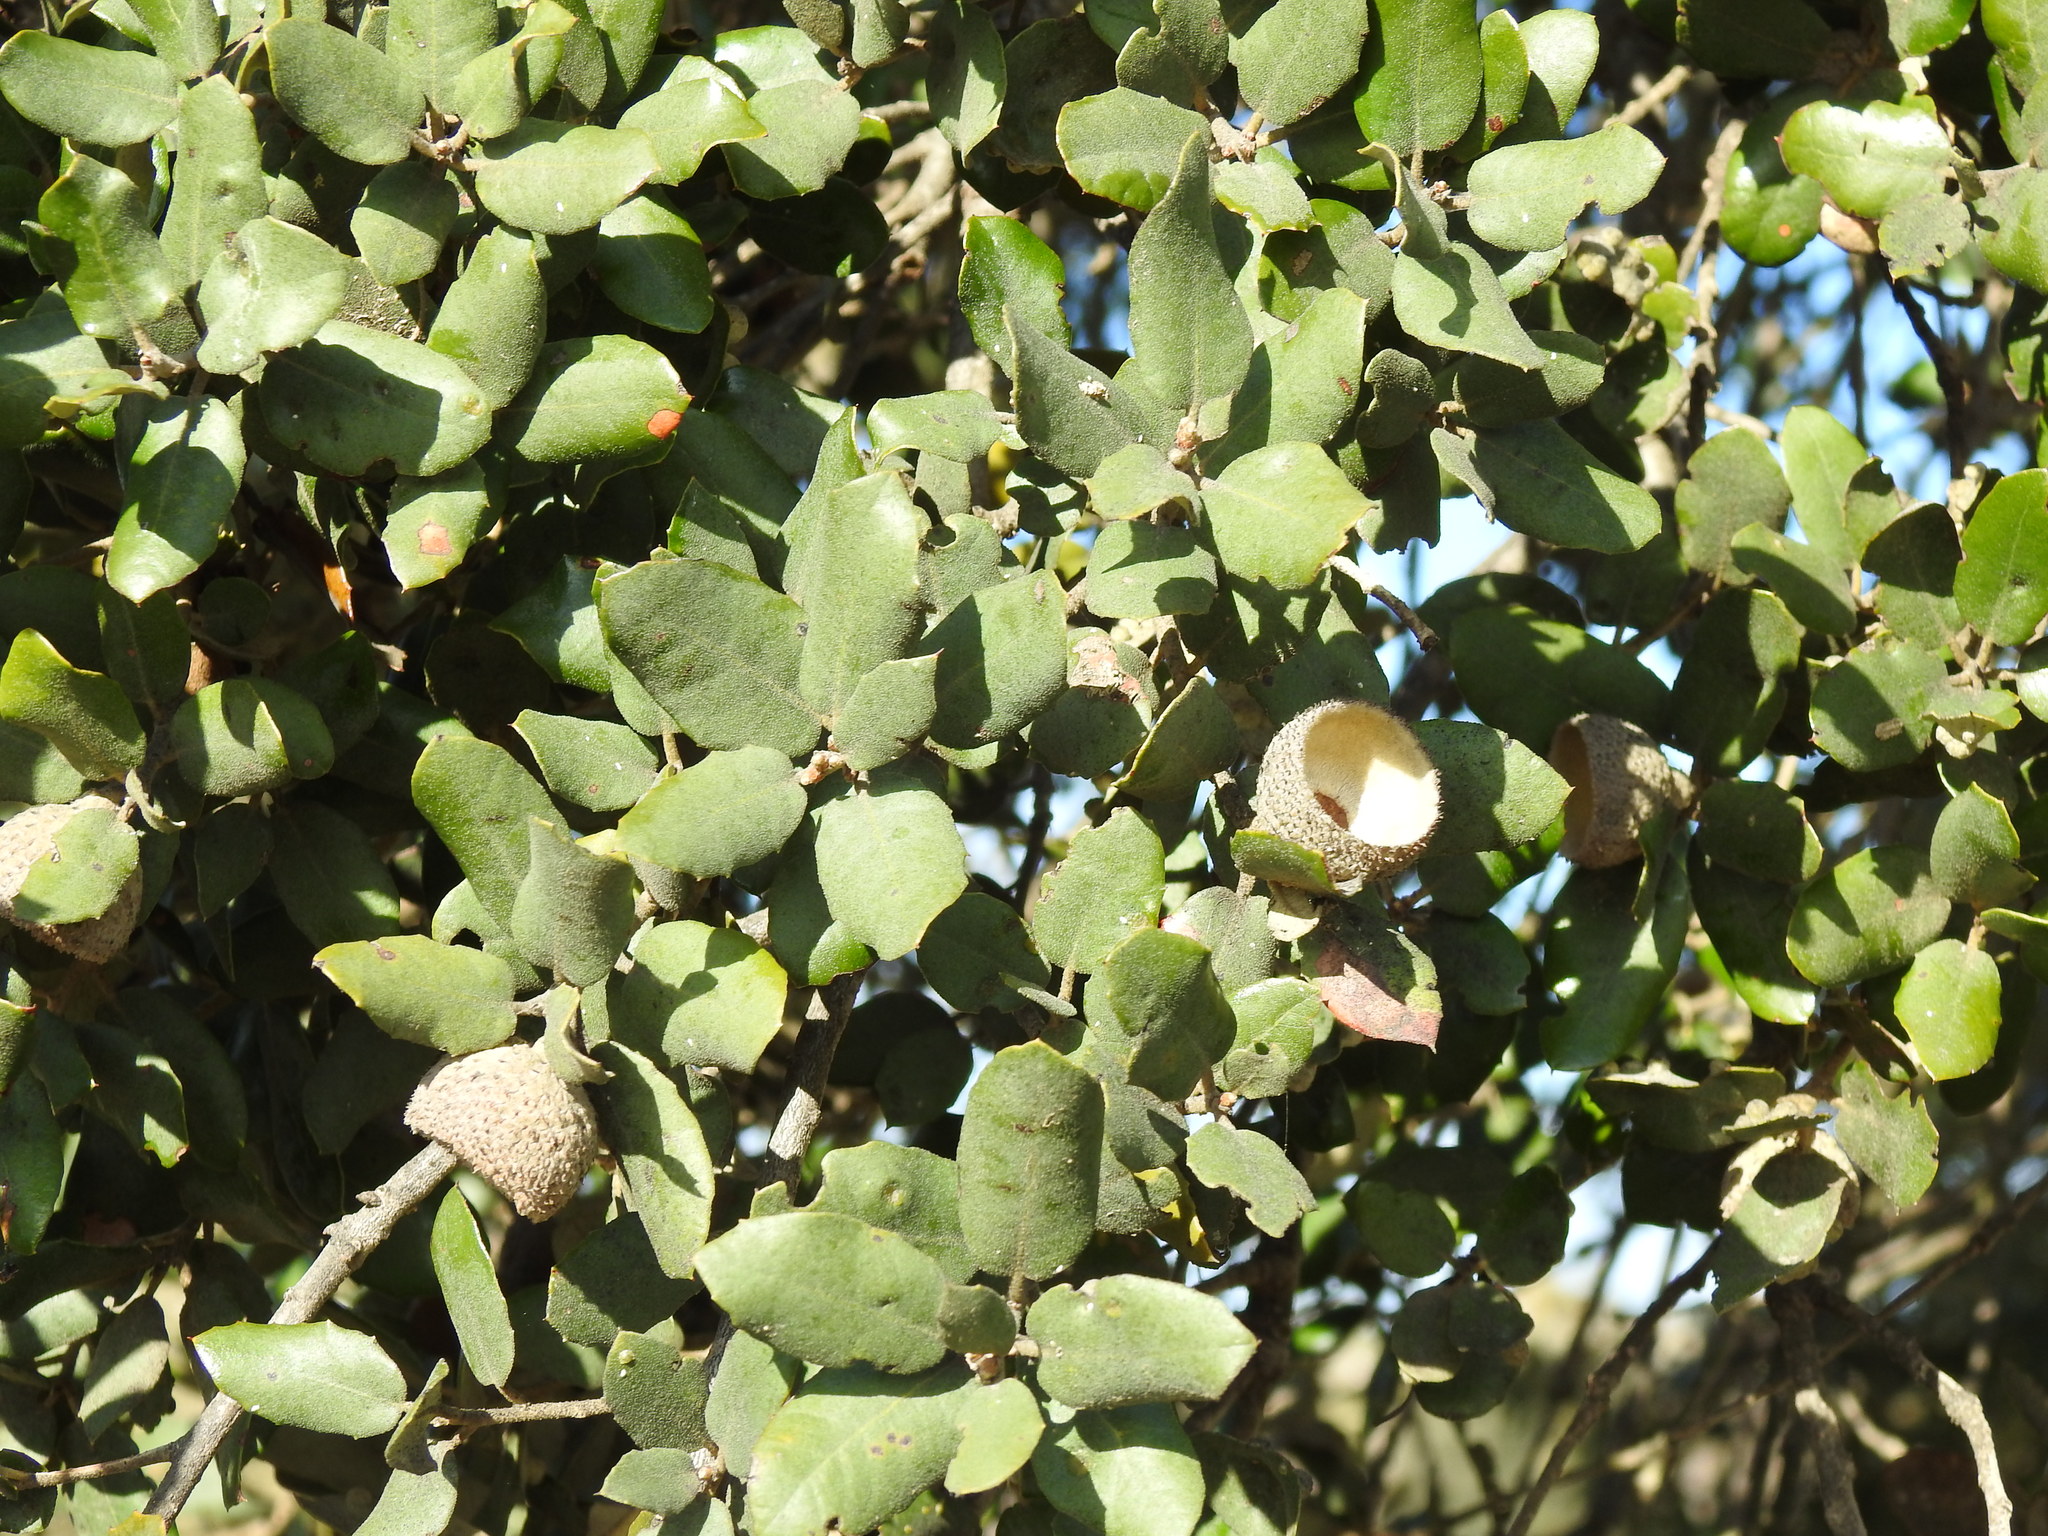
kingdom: Plantae
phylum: Tracheophyta
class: Magnoliopsida
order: Fagales
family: Fagaceae
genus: Quercus
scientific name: Quercus rotundifolia
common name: Holm oak
